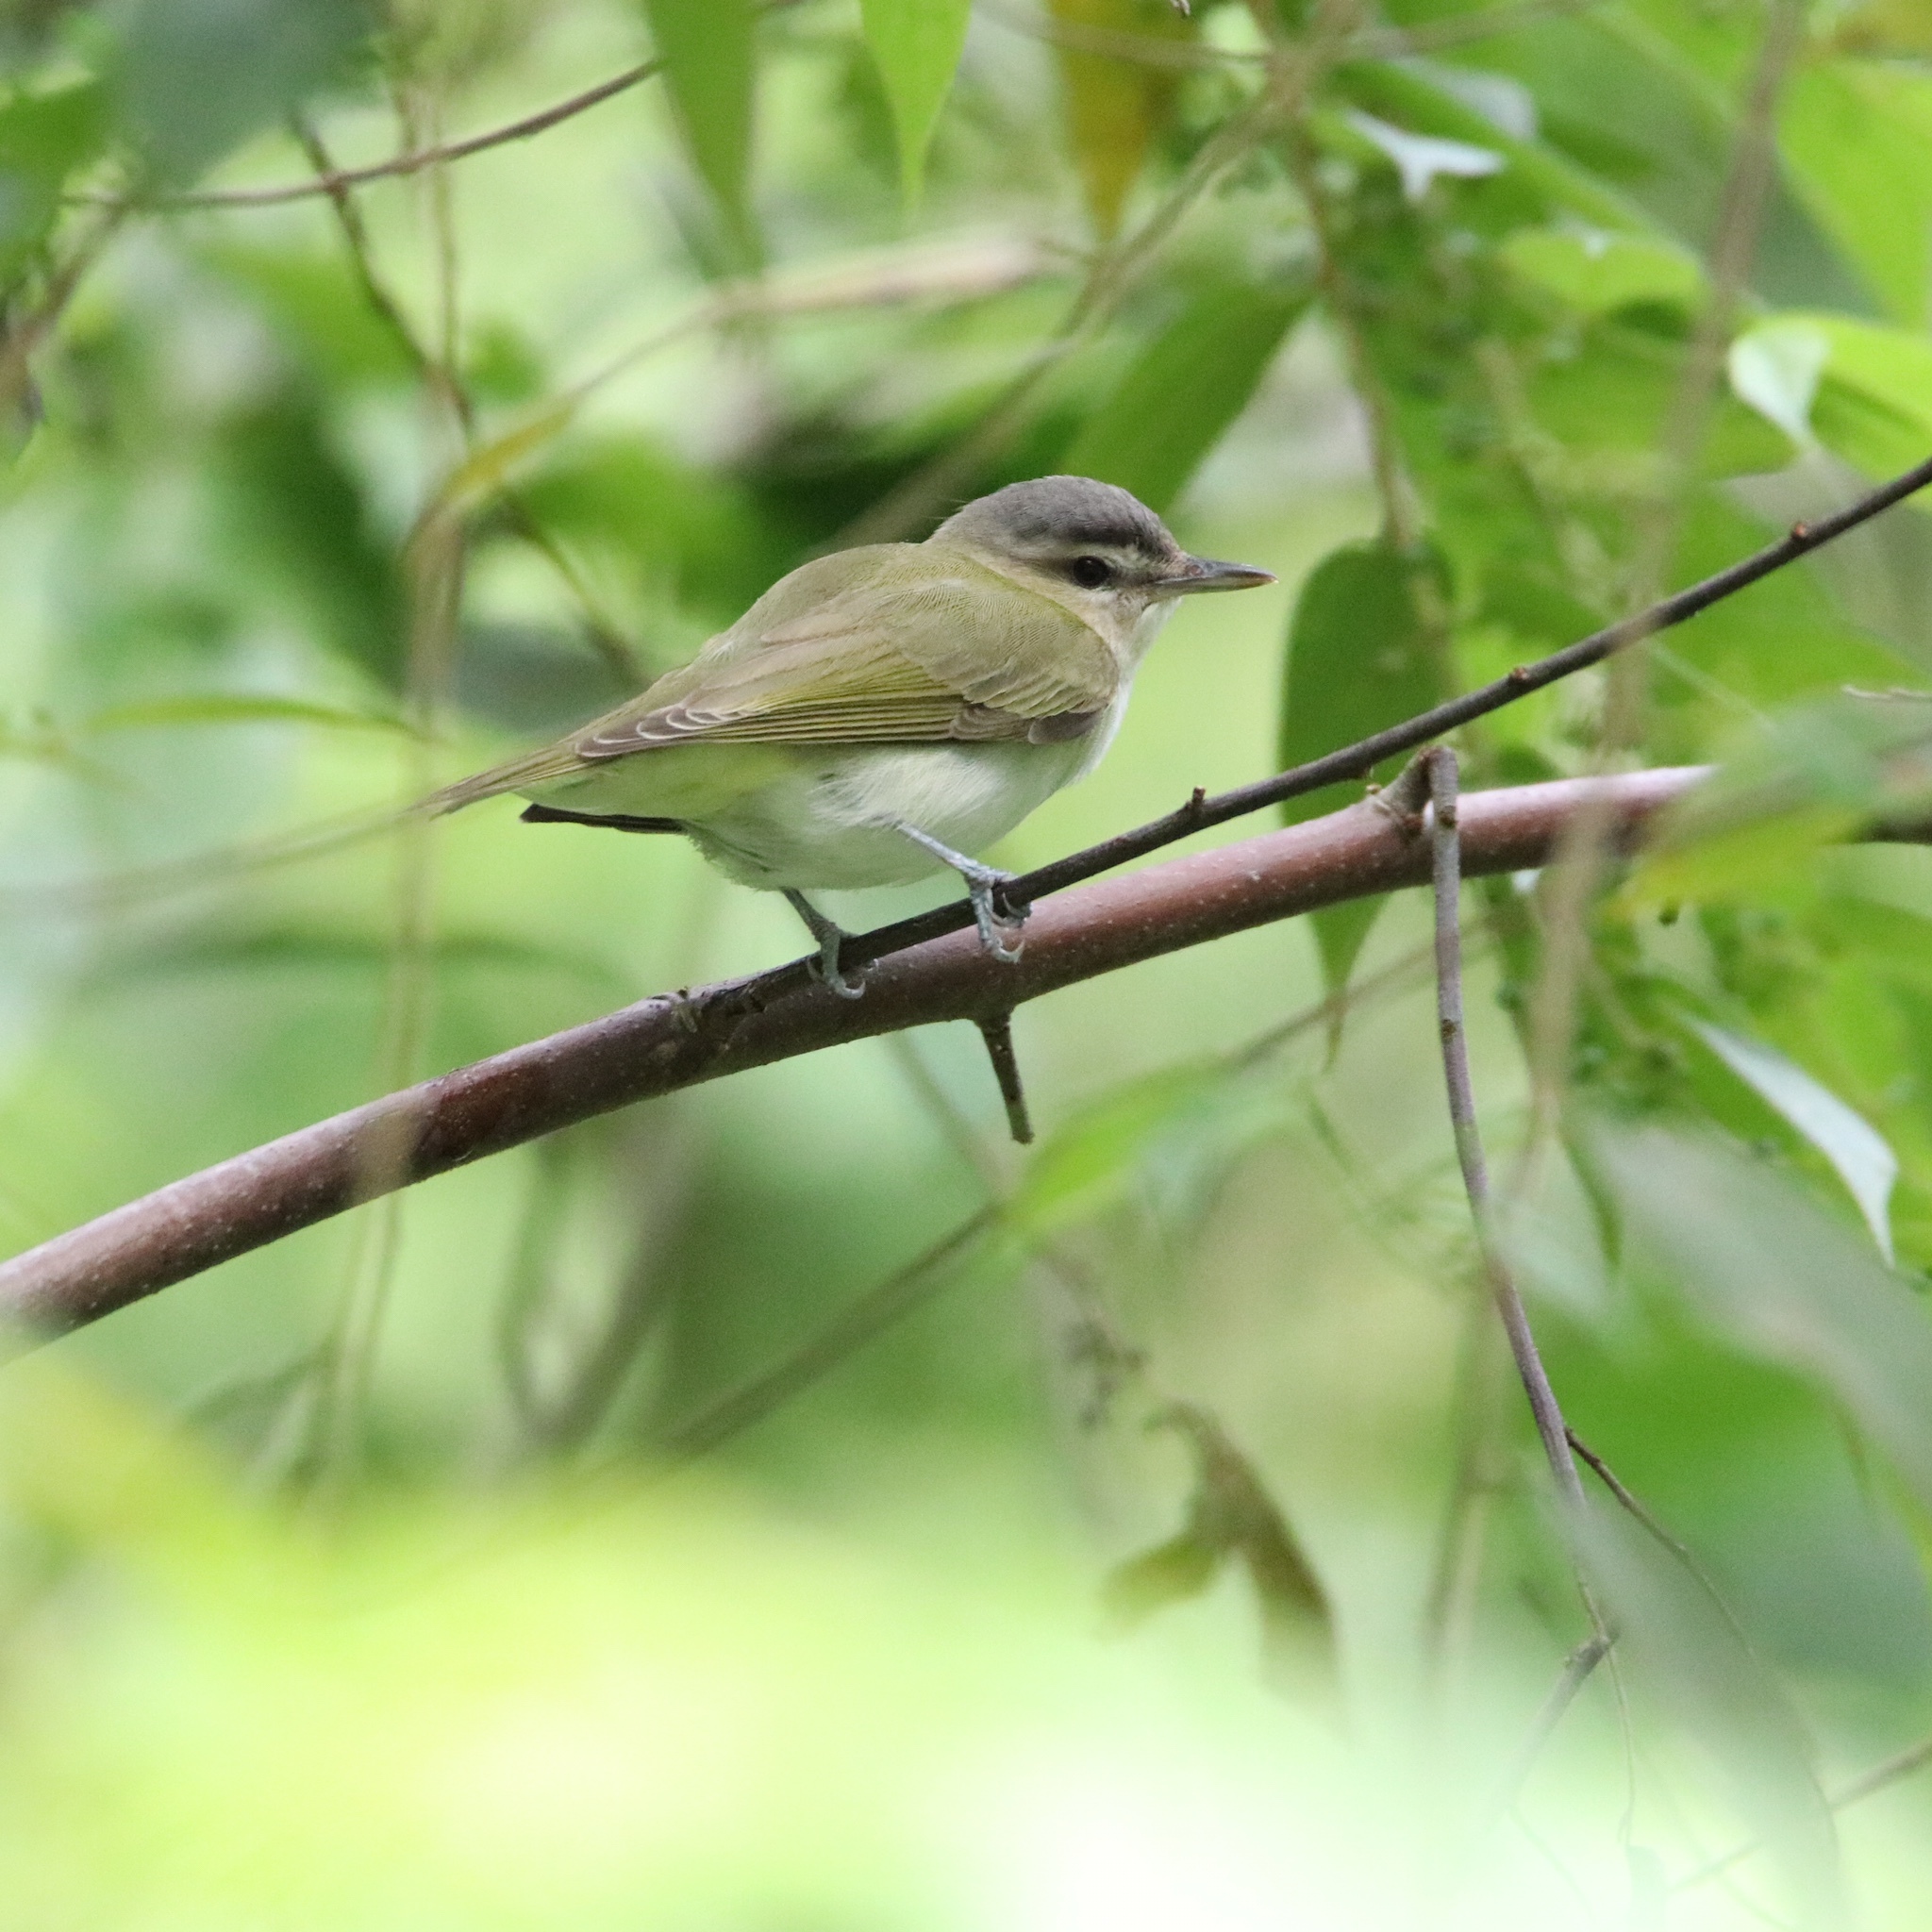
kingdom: Animalia
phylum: Chordata
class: Aves
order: Passeriformes
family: Vireonidae
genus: Vireo
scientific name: Vireo olivaceus
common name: Red-eyed vireo
